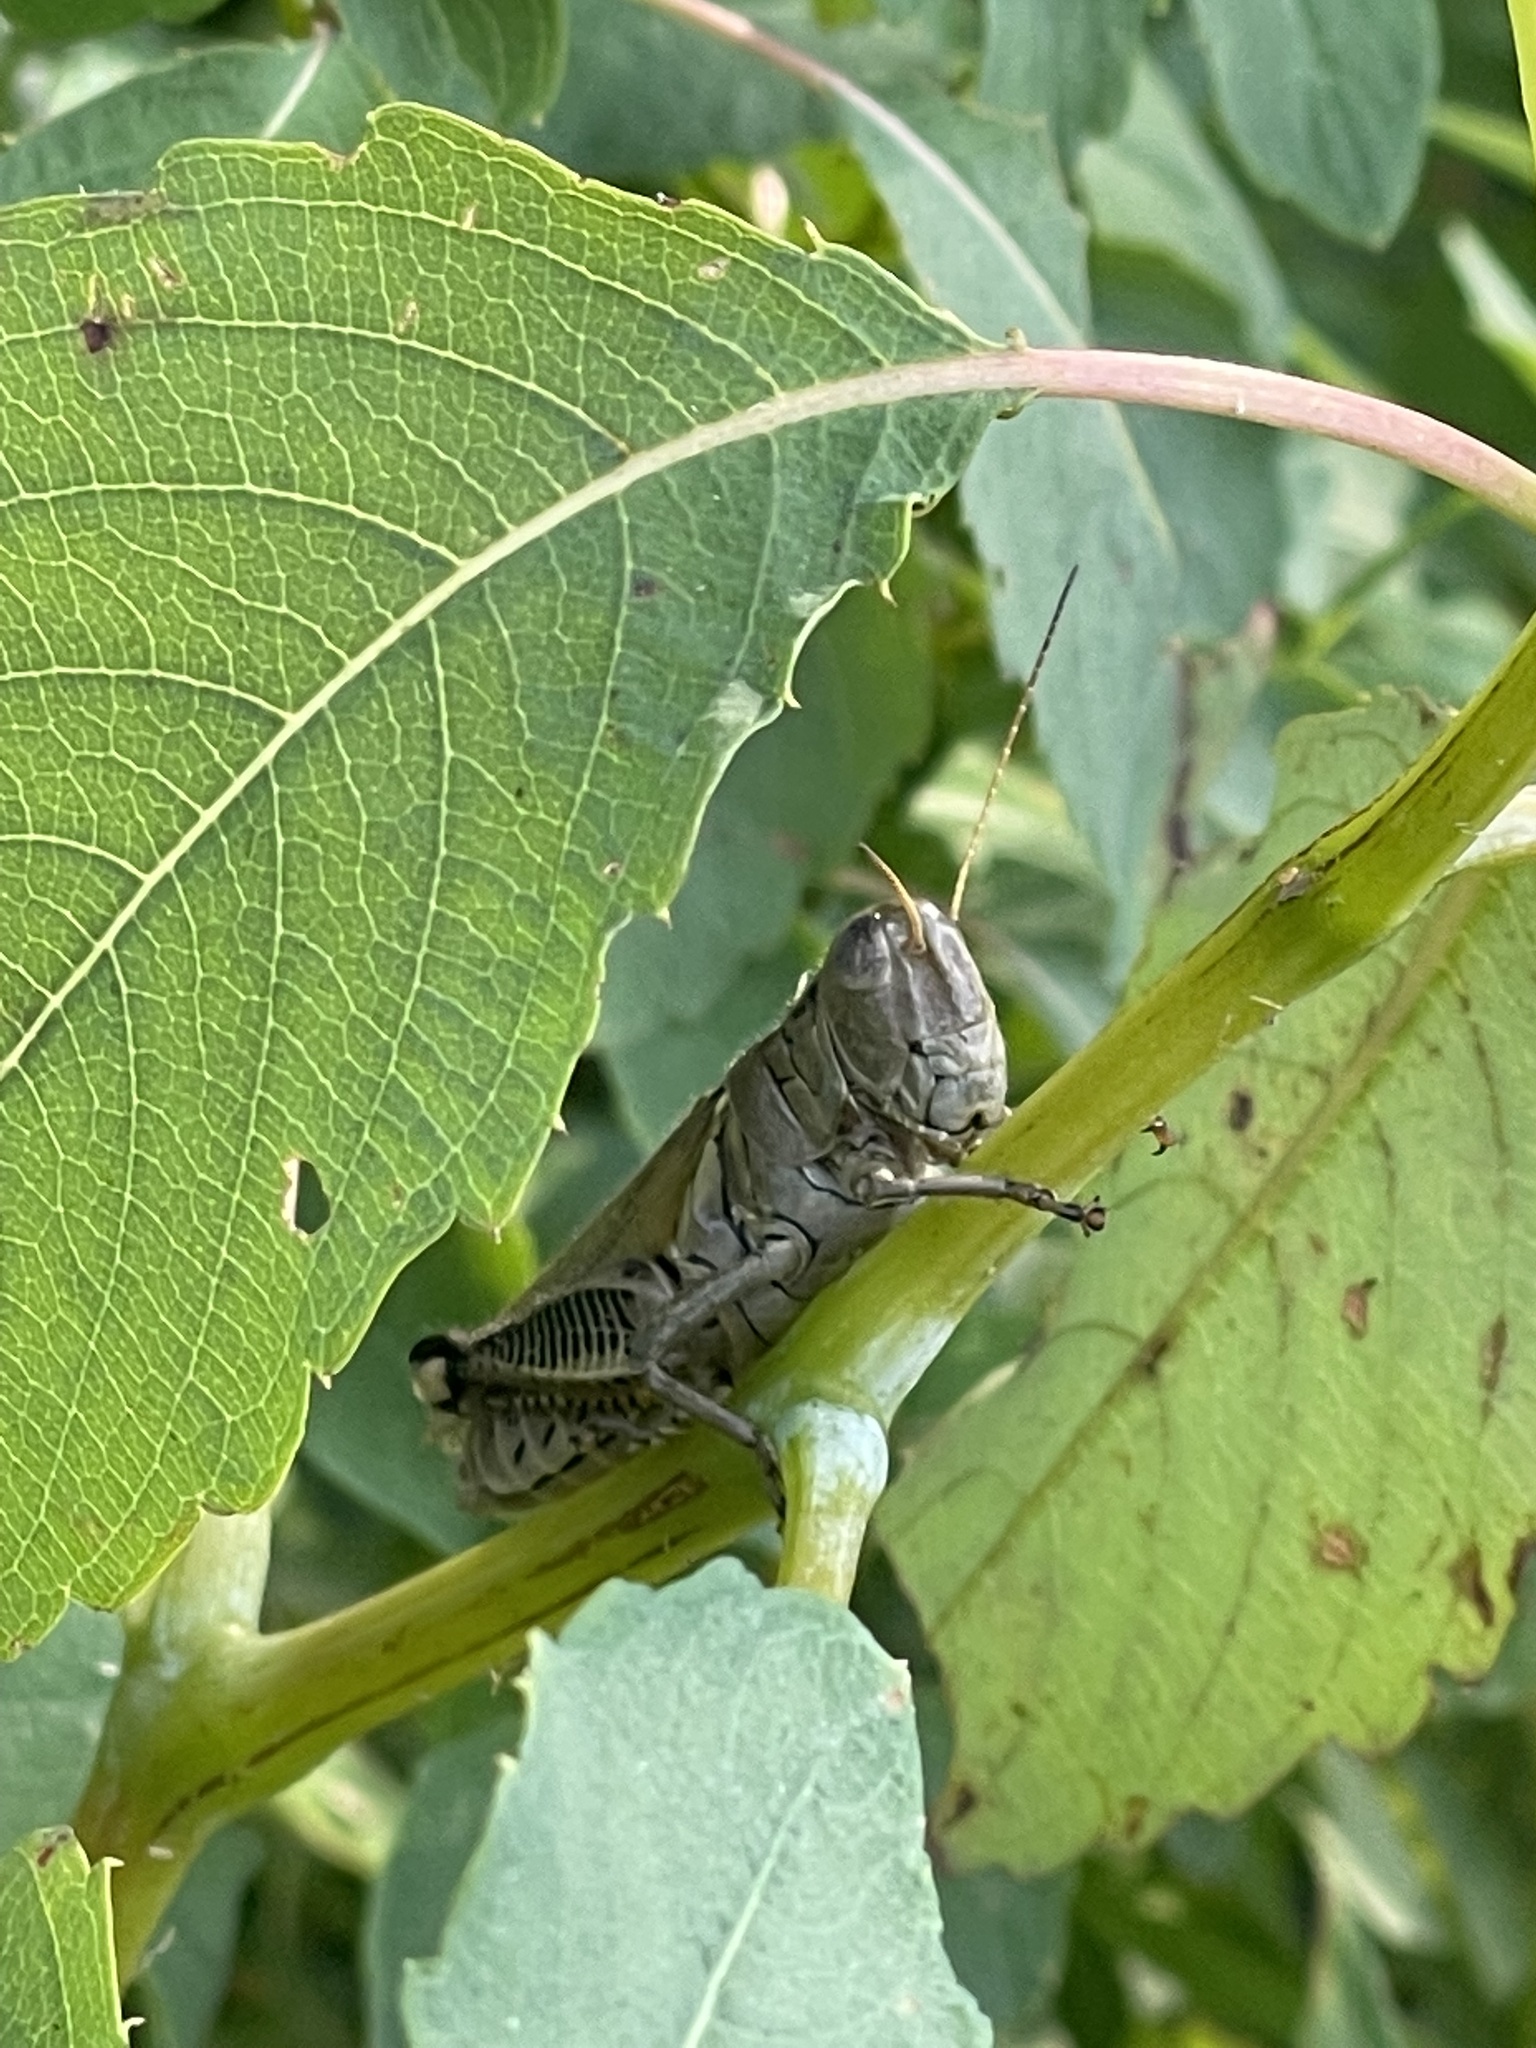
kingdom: Animalia
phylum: Arthropoda
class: Insecta
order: Orthoptera
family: Acrididae
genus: Melanoplus
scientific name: Melanoplus differentialis
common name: Differential grasshopper
